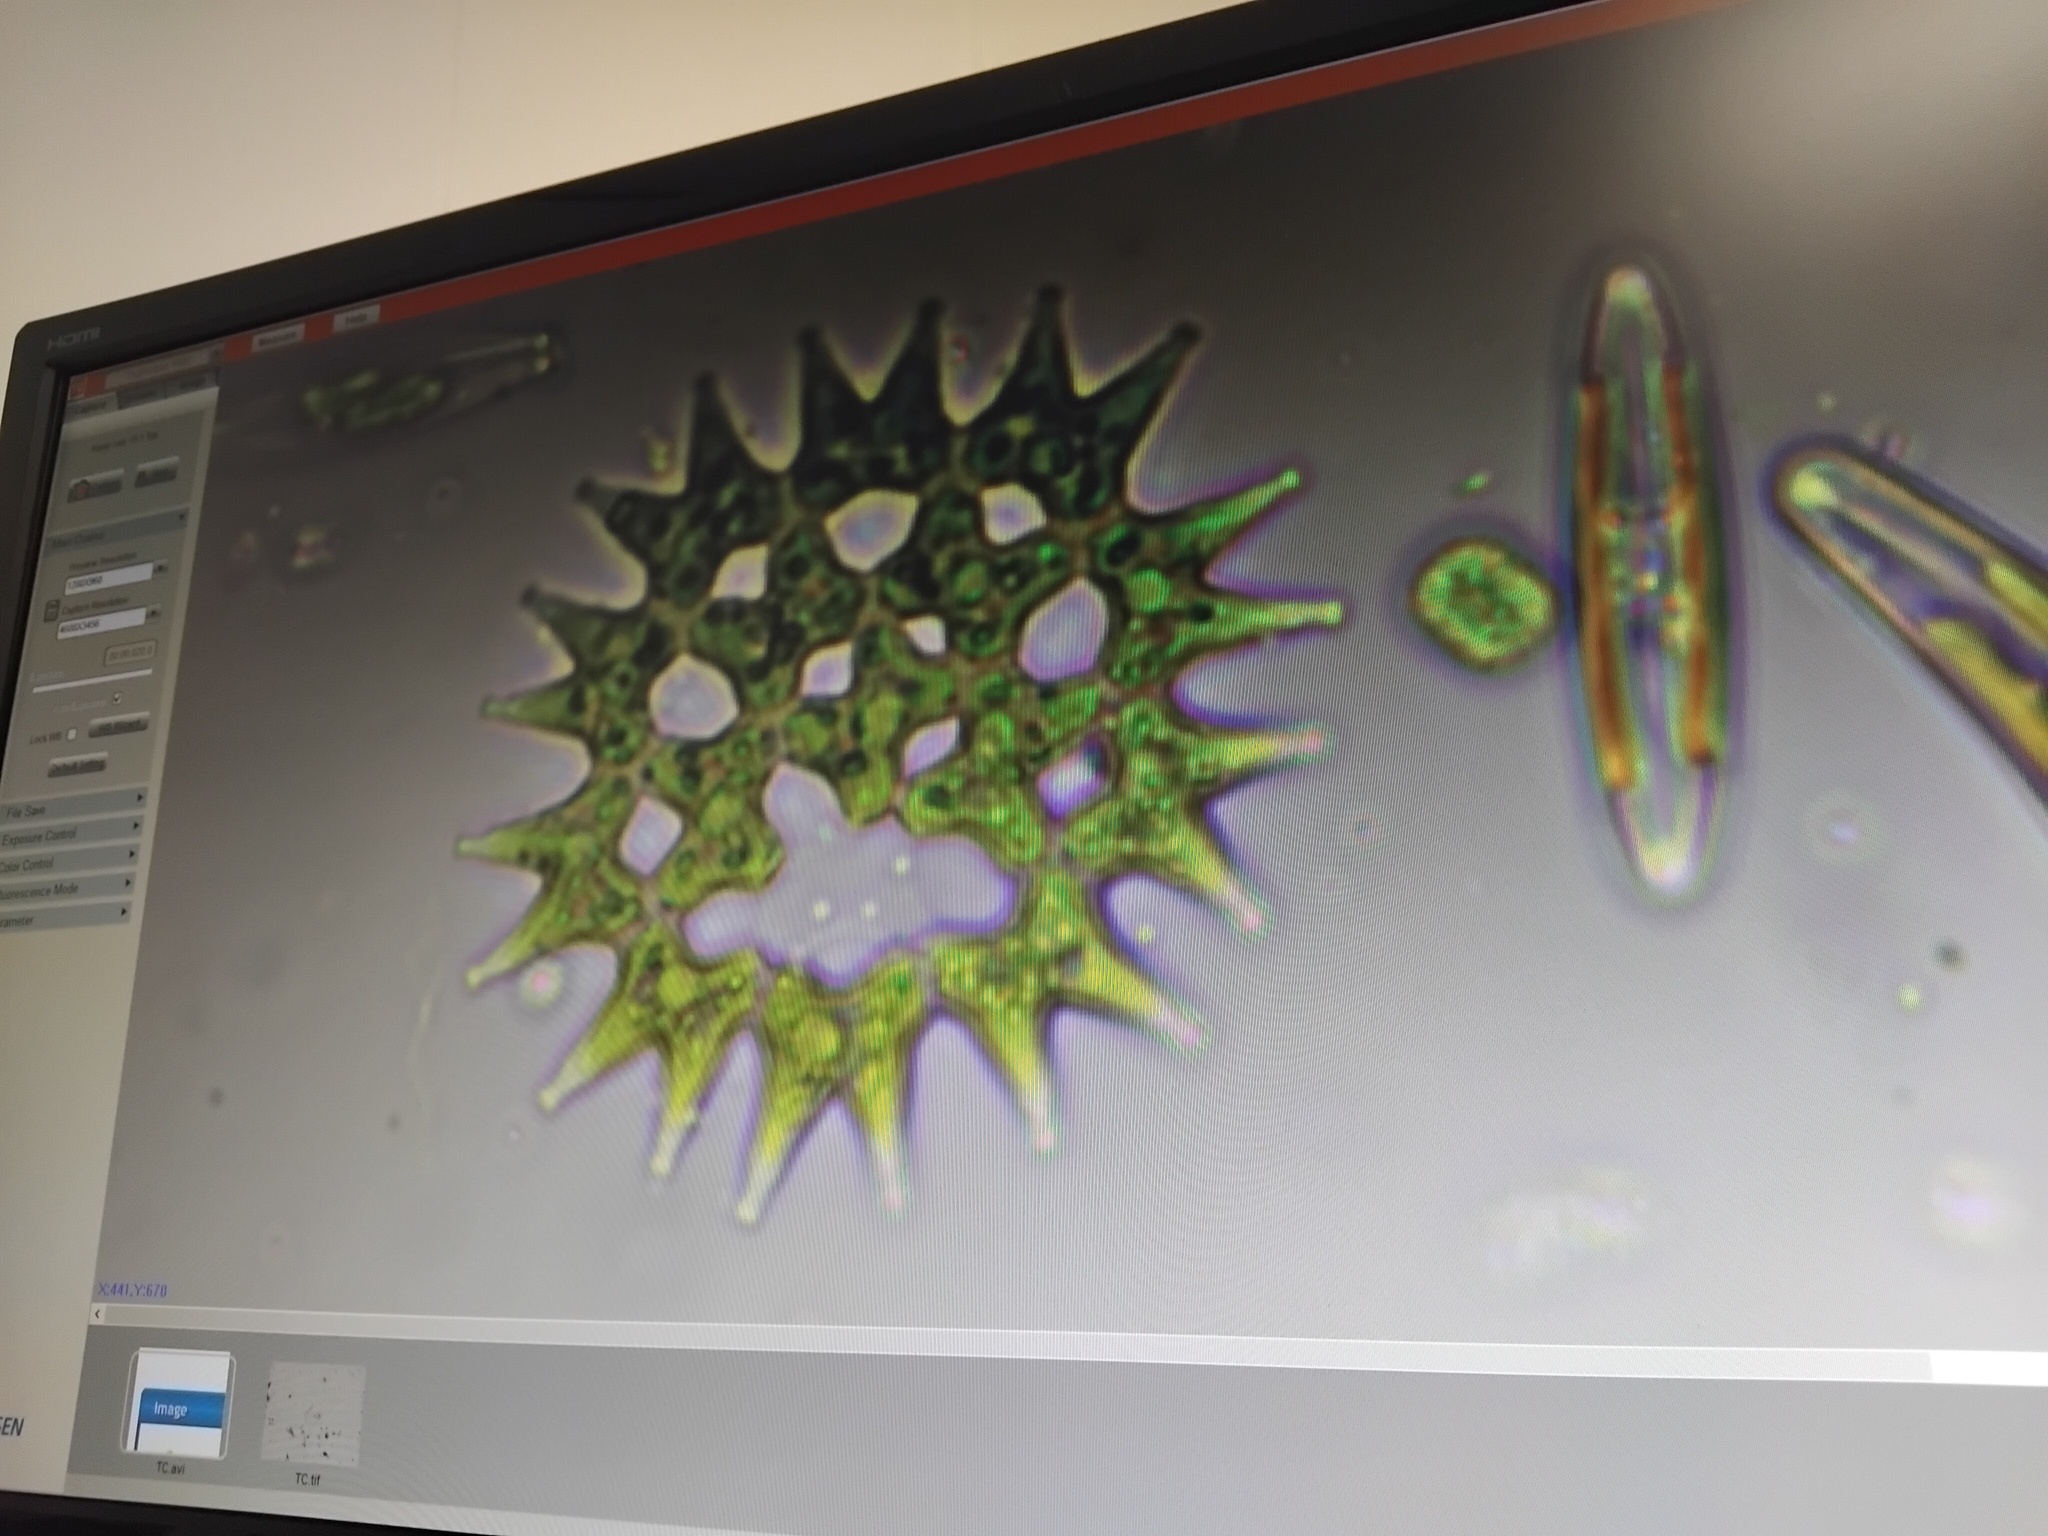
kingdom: Plantae
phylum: Chlorophyta
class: Chlorophyceae
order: Sphaeropleales
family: Hydrodictyaceae
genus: Pediastrum
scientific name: Pediastrum duplex
